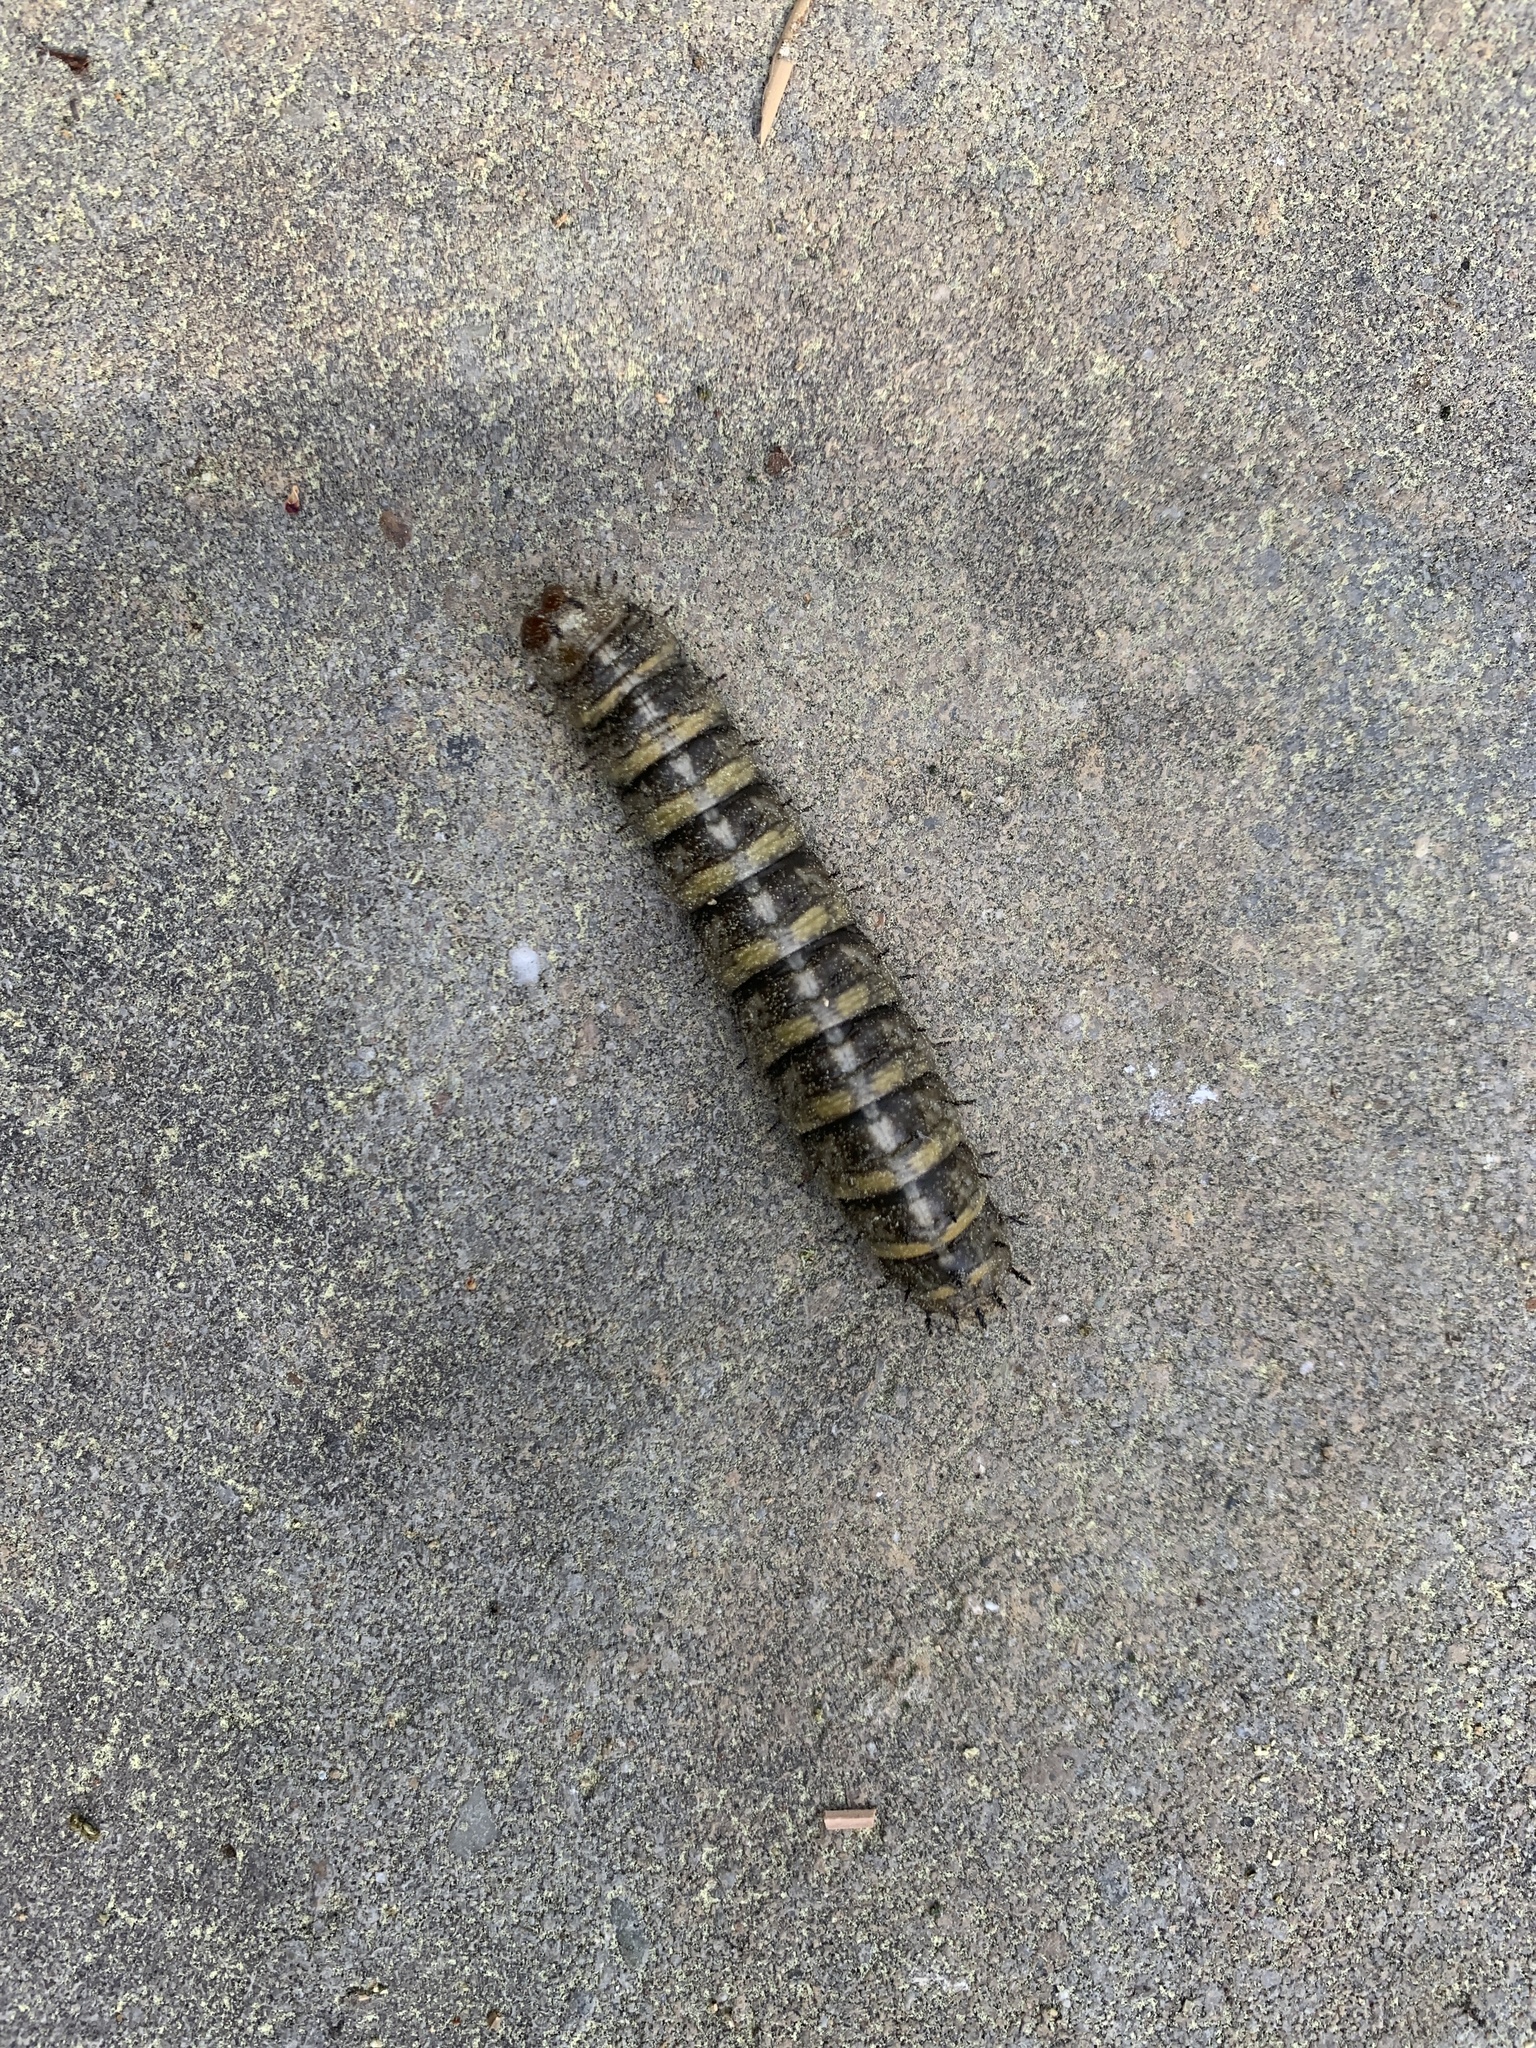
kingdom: Animalia
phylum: Arthropoda
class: Insecta
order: Lepidoptera
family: Saturniidae
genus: Coloradia
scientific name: Coloradia pandora
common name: Pandora pinemoth
